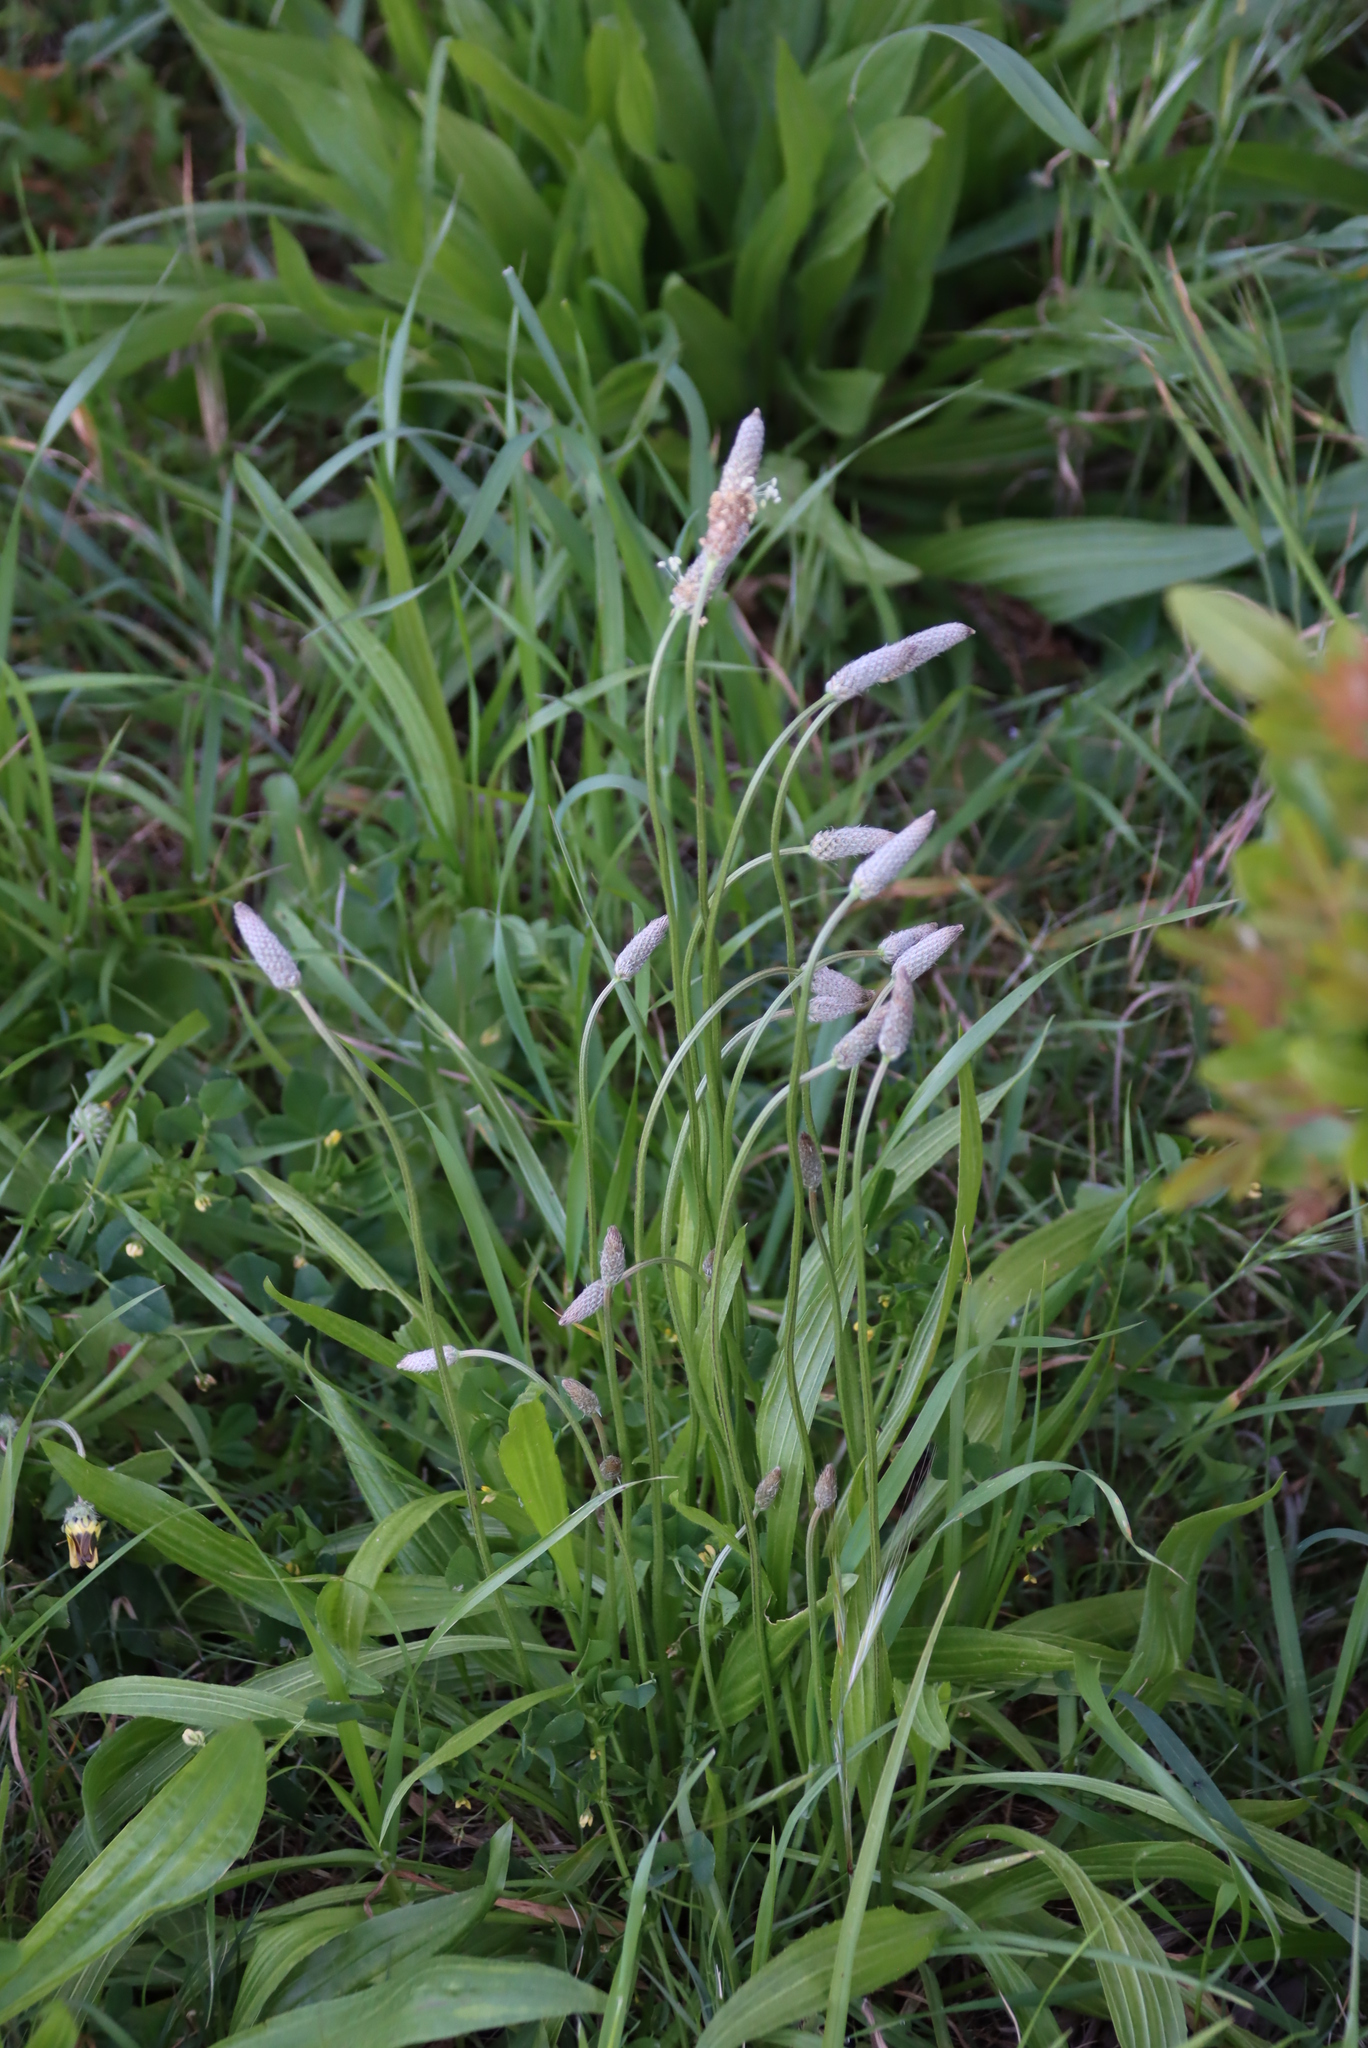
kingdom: Plantae
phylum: Tracheophyta
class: Magnoliopsida
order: Lamiales
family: Plantaginaceae
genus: Plantago
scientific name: Plantago lanceolata
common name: Ribwort plantain
